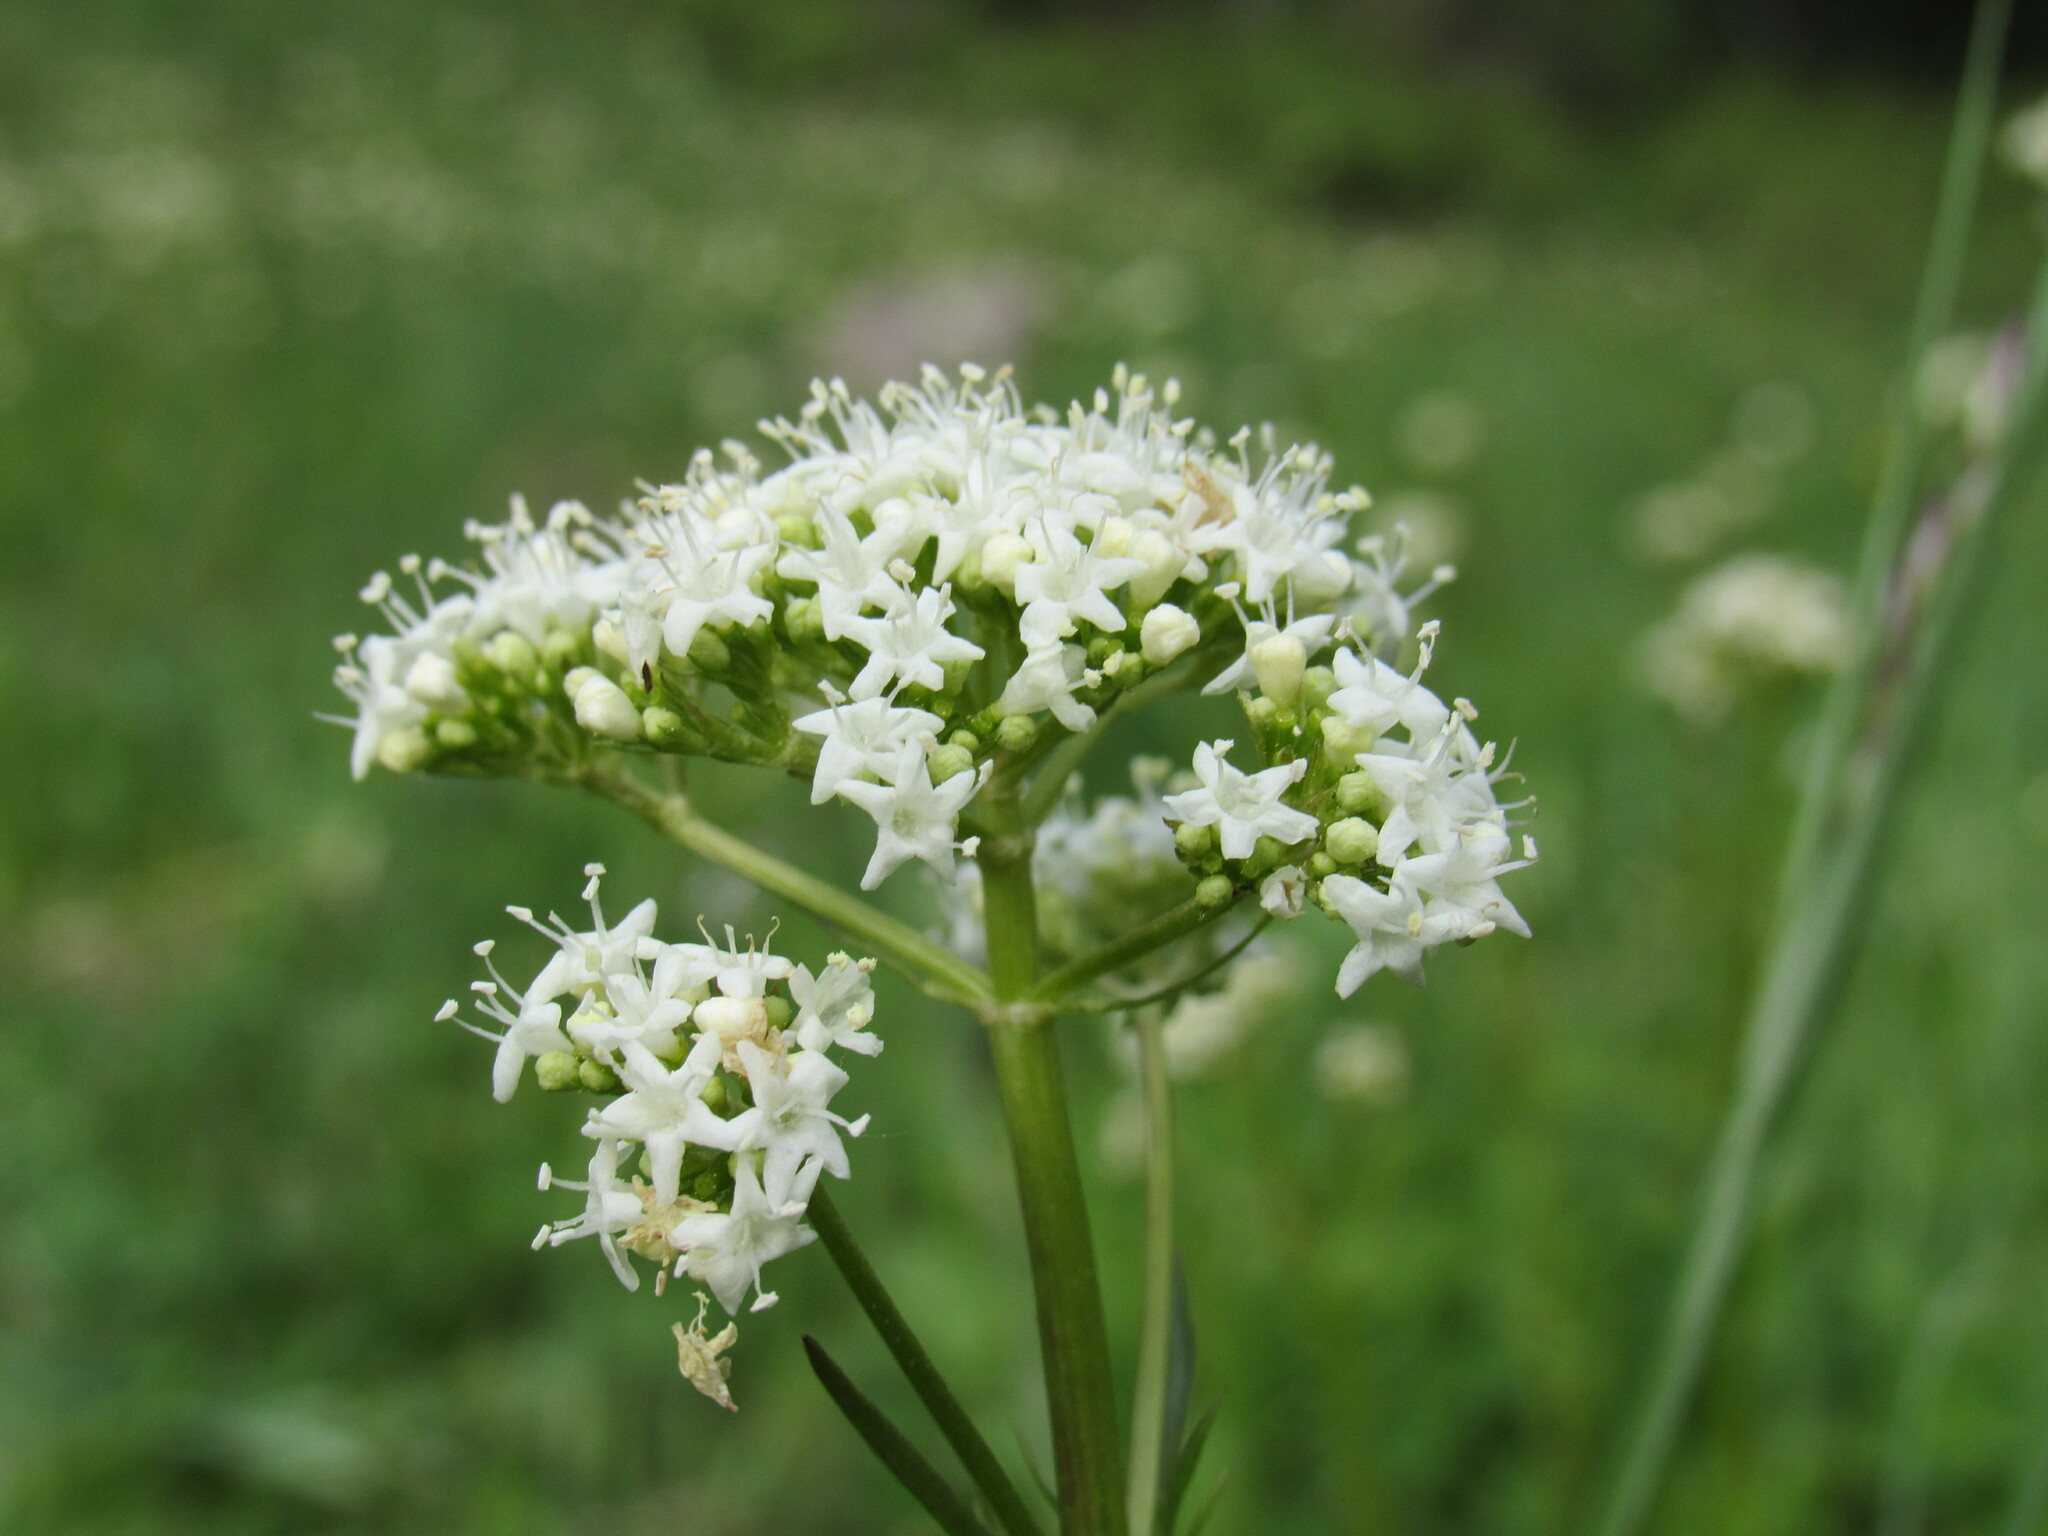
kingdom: Plantae
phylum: Tracheophyta
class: Magnoliopsida
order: Dipsacales
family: Caprifoliaceae
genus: Valeriana
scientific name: Valeriana occidentalis
